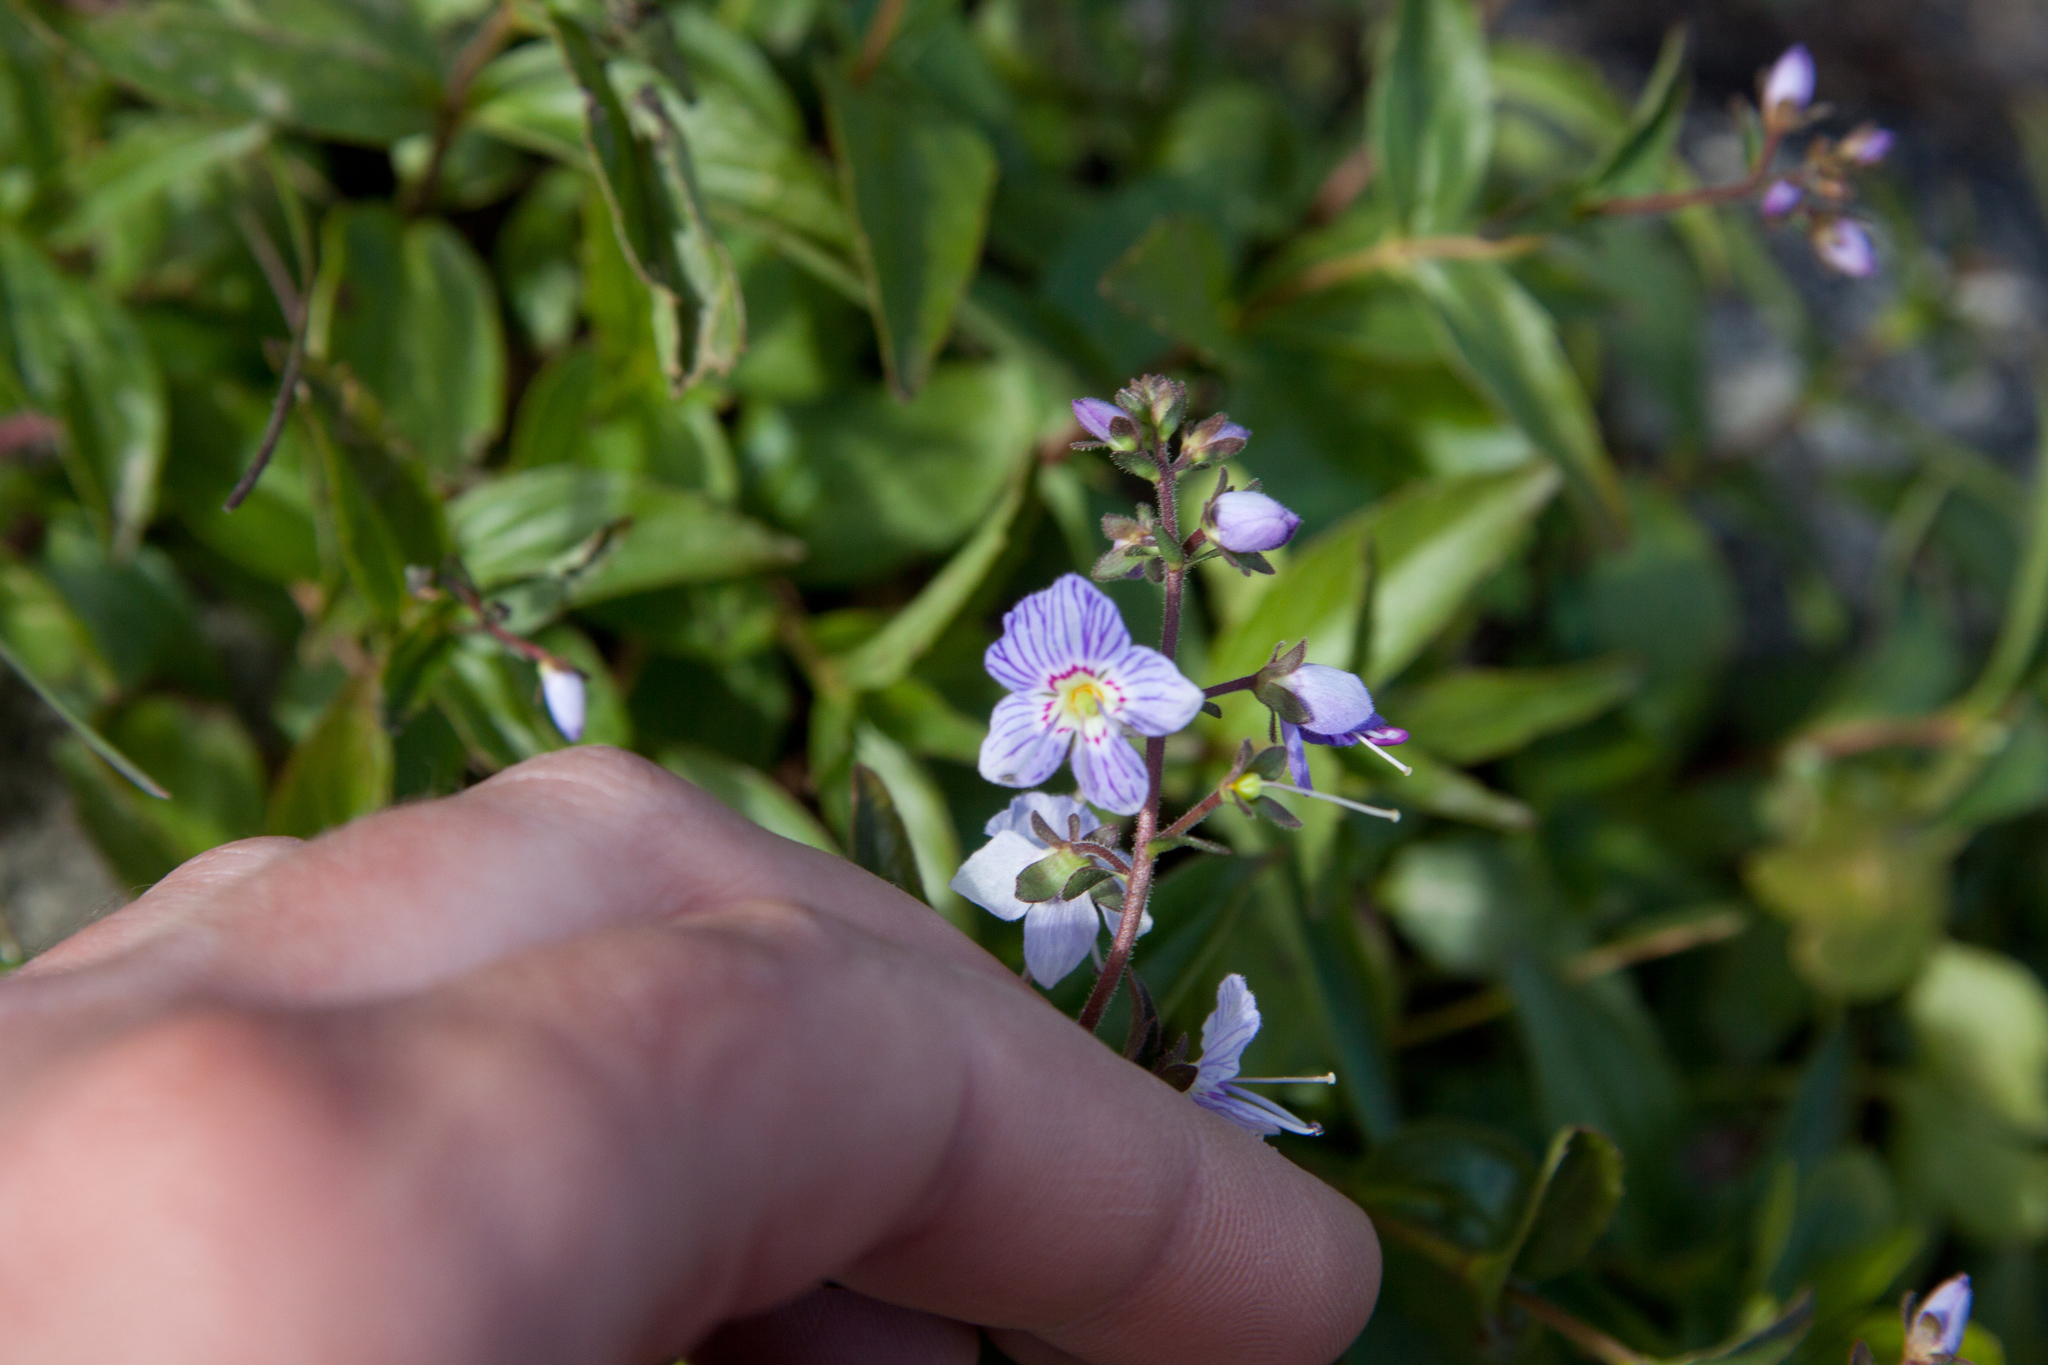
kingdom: Plantae
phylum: Tracheophyta
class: Magnoliopsida
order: Lamiales
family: Plantaginaceae
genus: Veronica
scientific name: Veronica monticola
